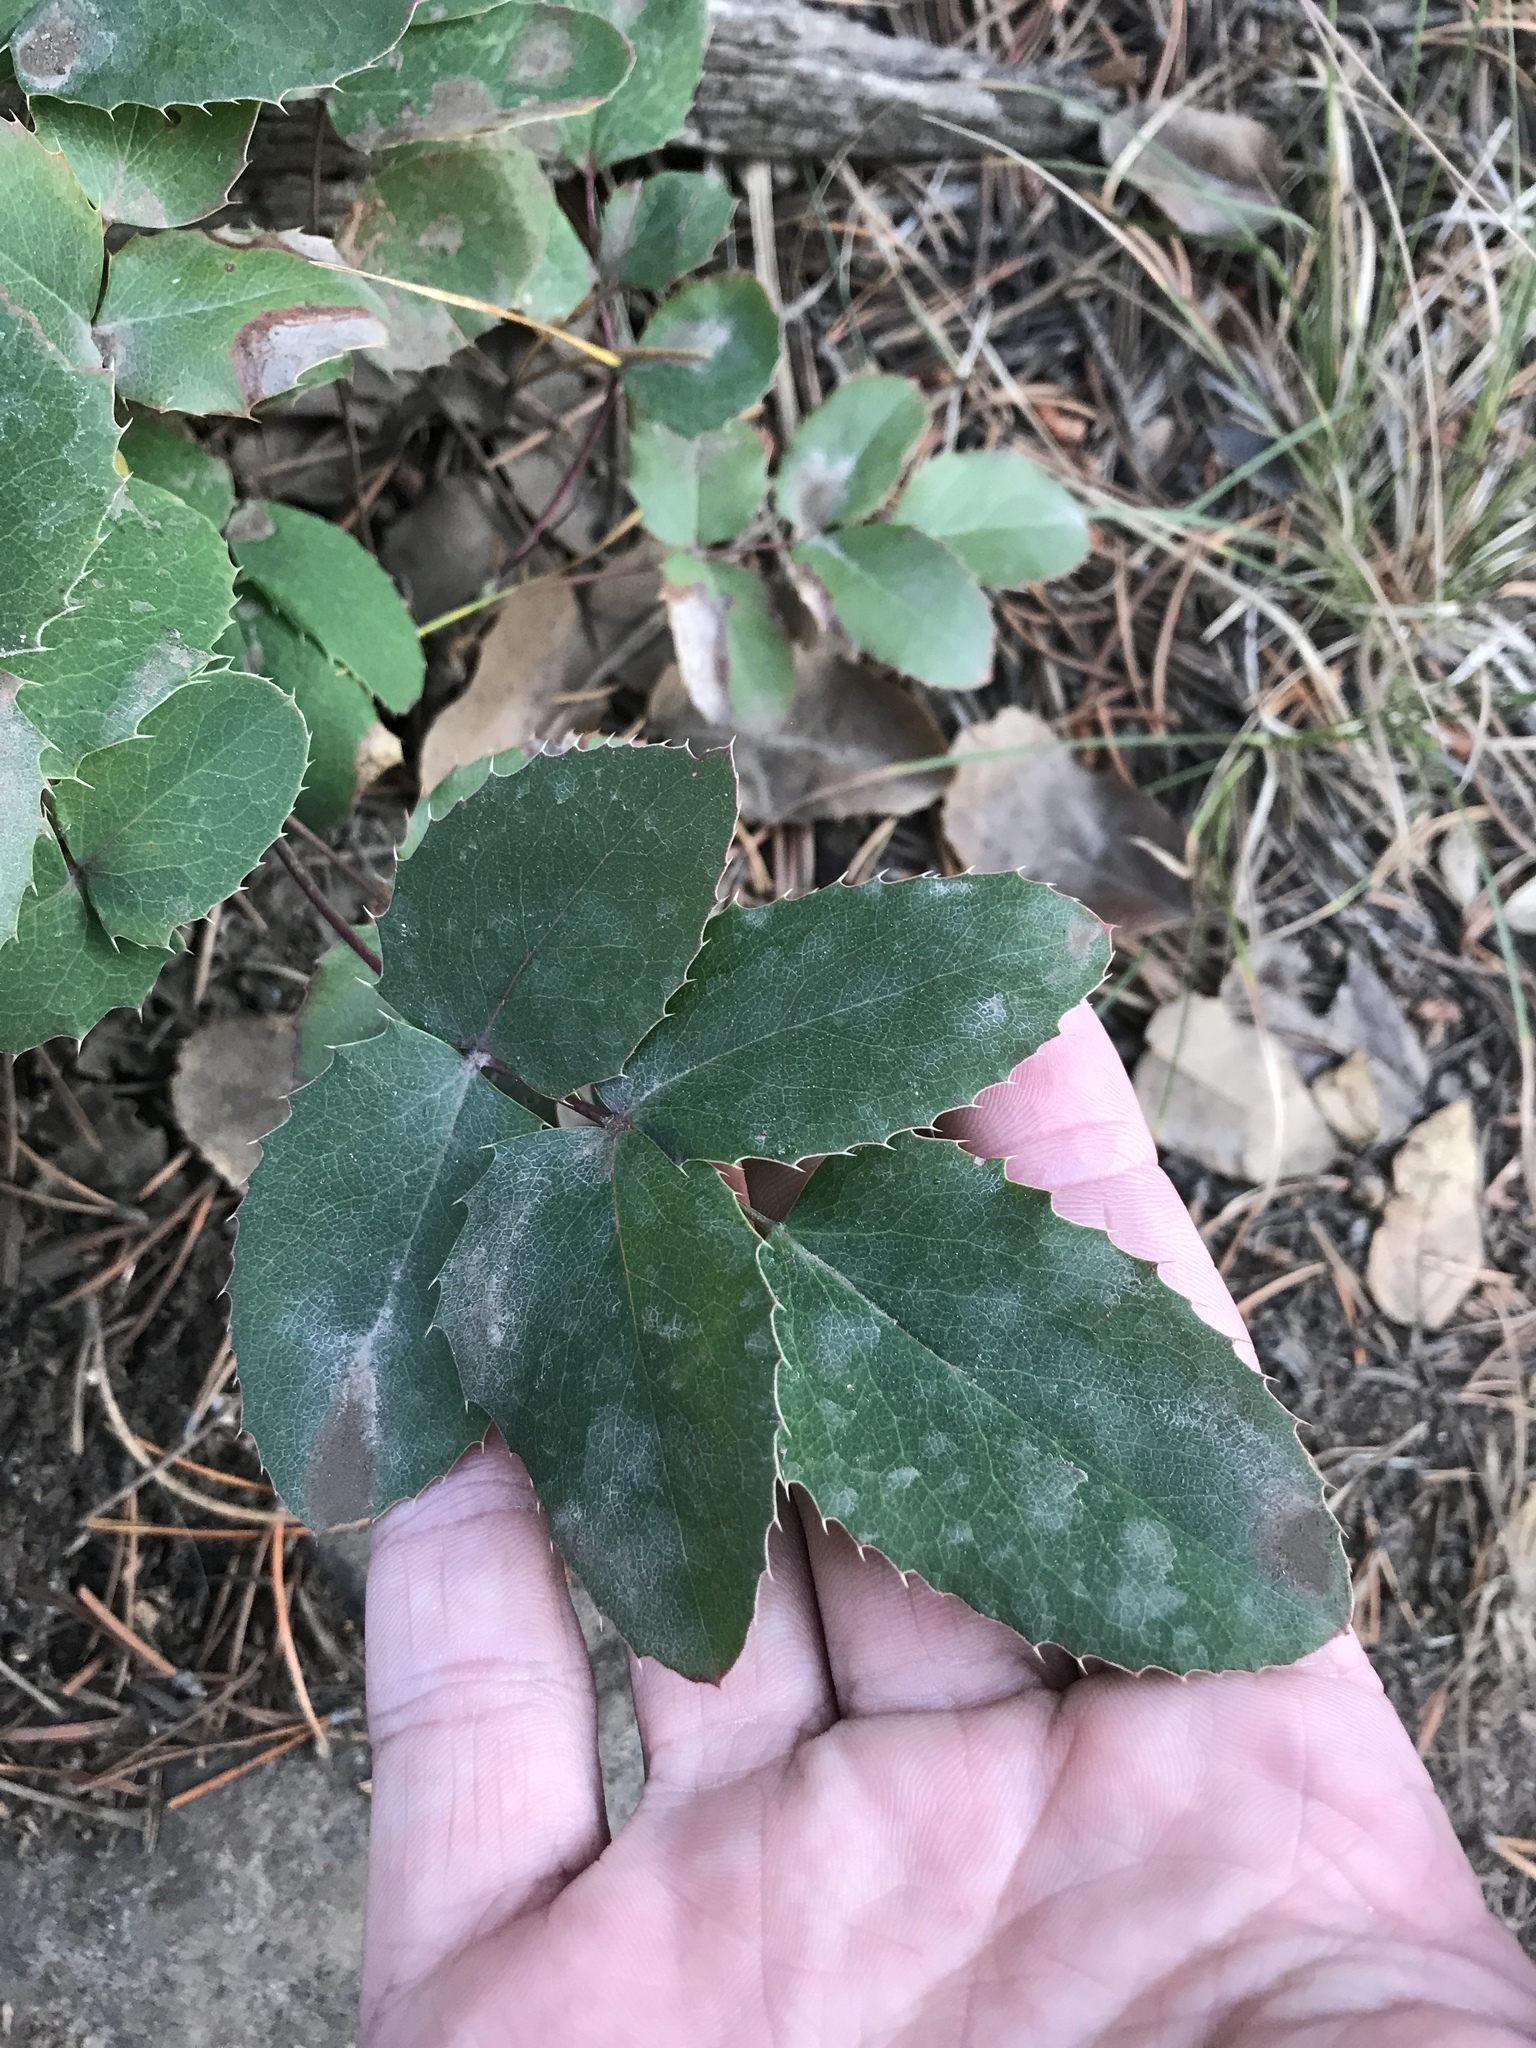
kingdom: Plantae
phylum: Tracheophyta
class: Magnoliopsida
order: Ranunculales
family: Berberidaceae
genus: Mahonia
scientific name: Mahonia repens
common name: Creeping oregon-grape
